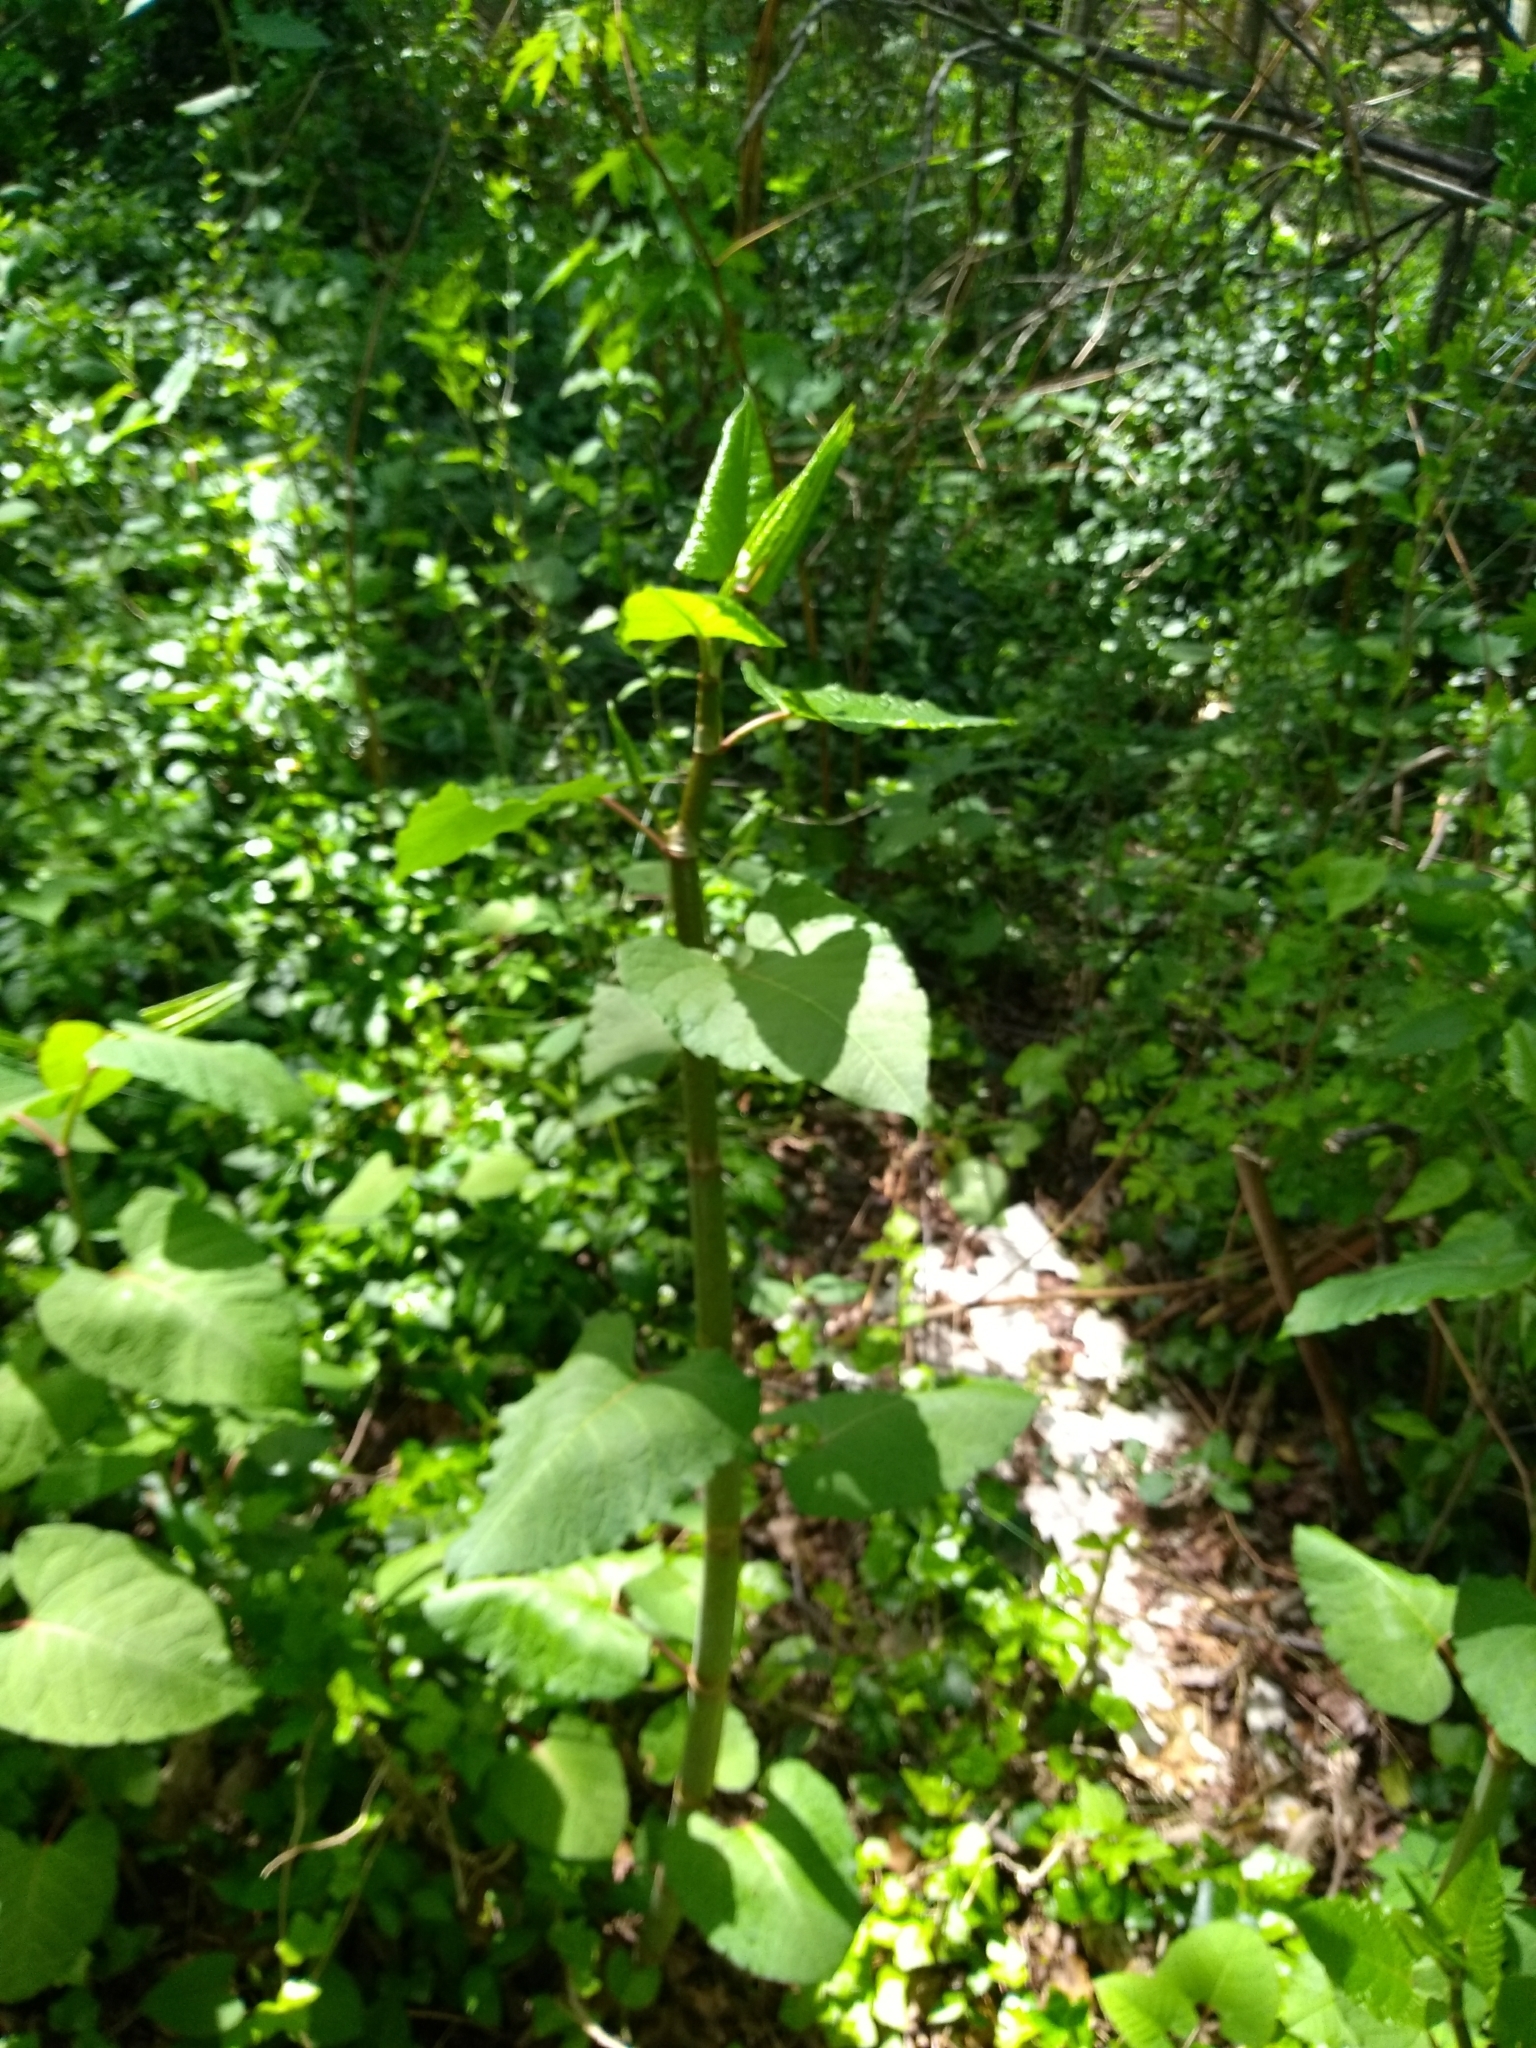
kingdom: Plantae
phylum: Tracheophyta
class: Magnoliopsida
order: Caryophyllales
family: Polygonaceae
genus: Reynoutria
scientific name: Reynoutria japonica
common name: Japanese knotweed
